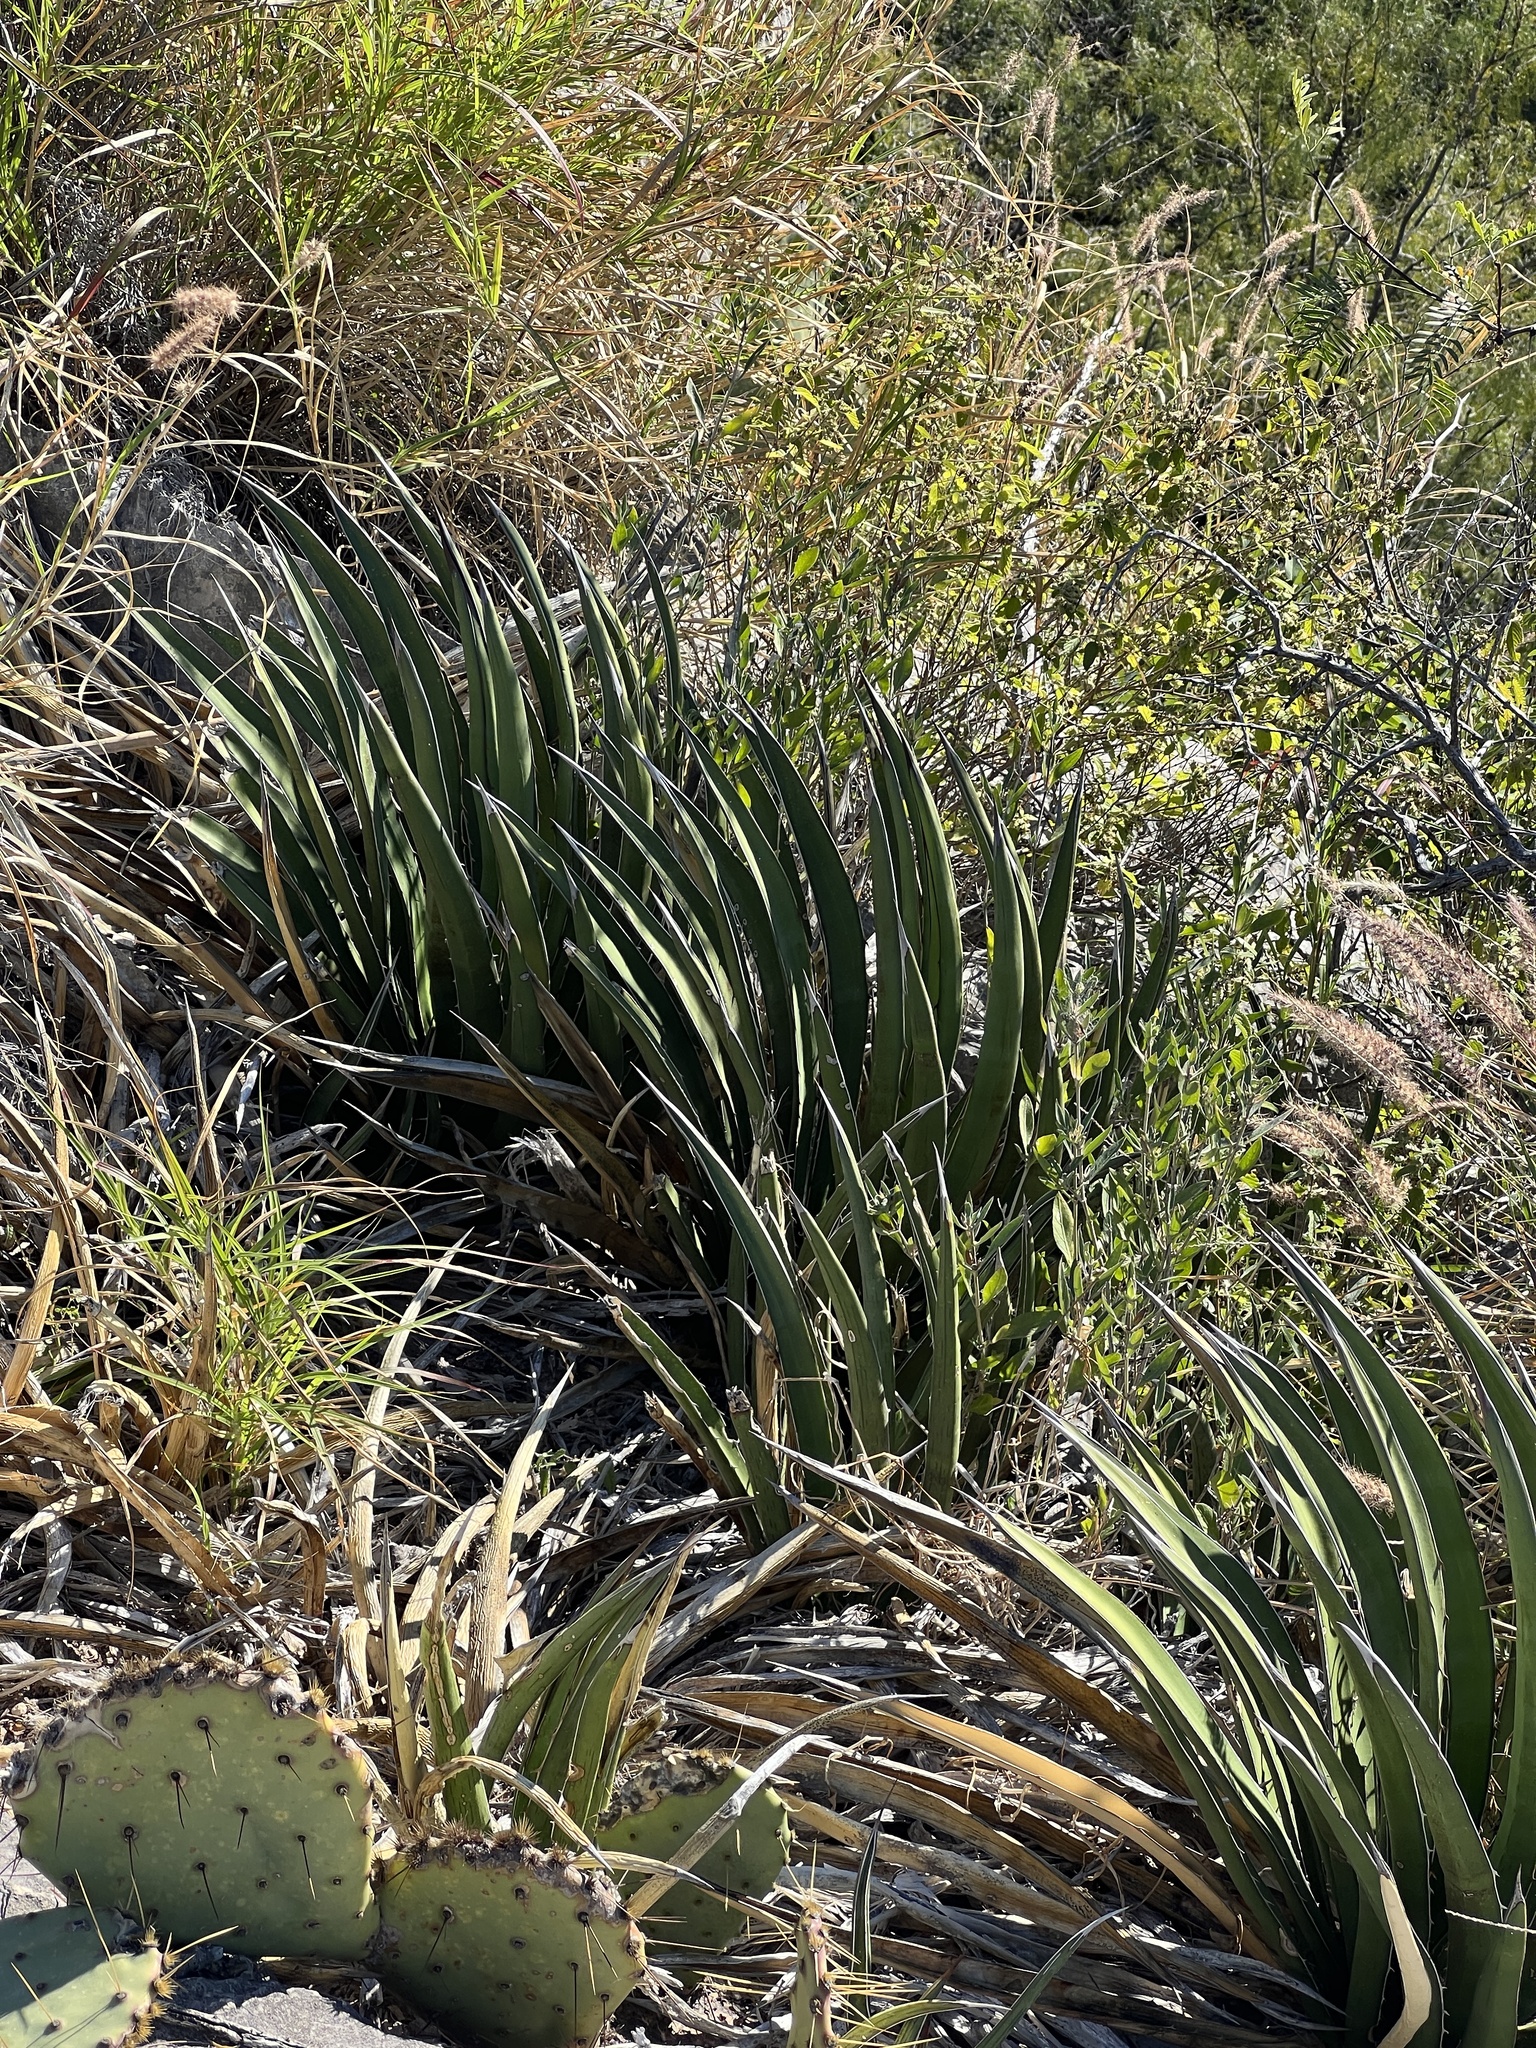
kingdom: Plantae
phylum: Tracheophyta
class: Liliopsida
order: Asparagales
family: Asparagaceae
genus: Agave
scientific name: Agave lechuguilla
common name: Lecheguilla agave
